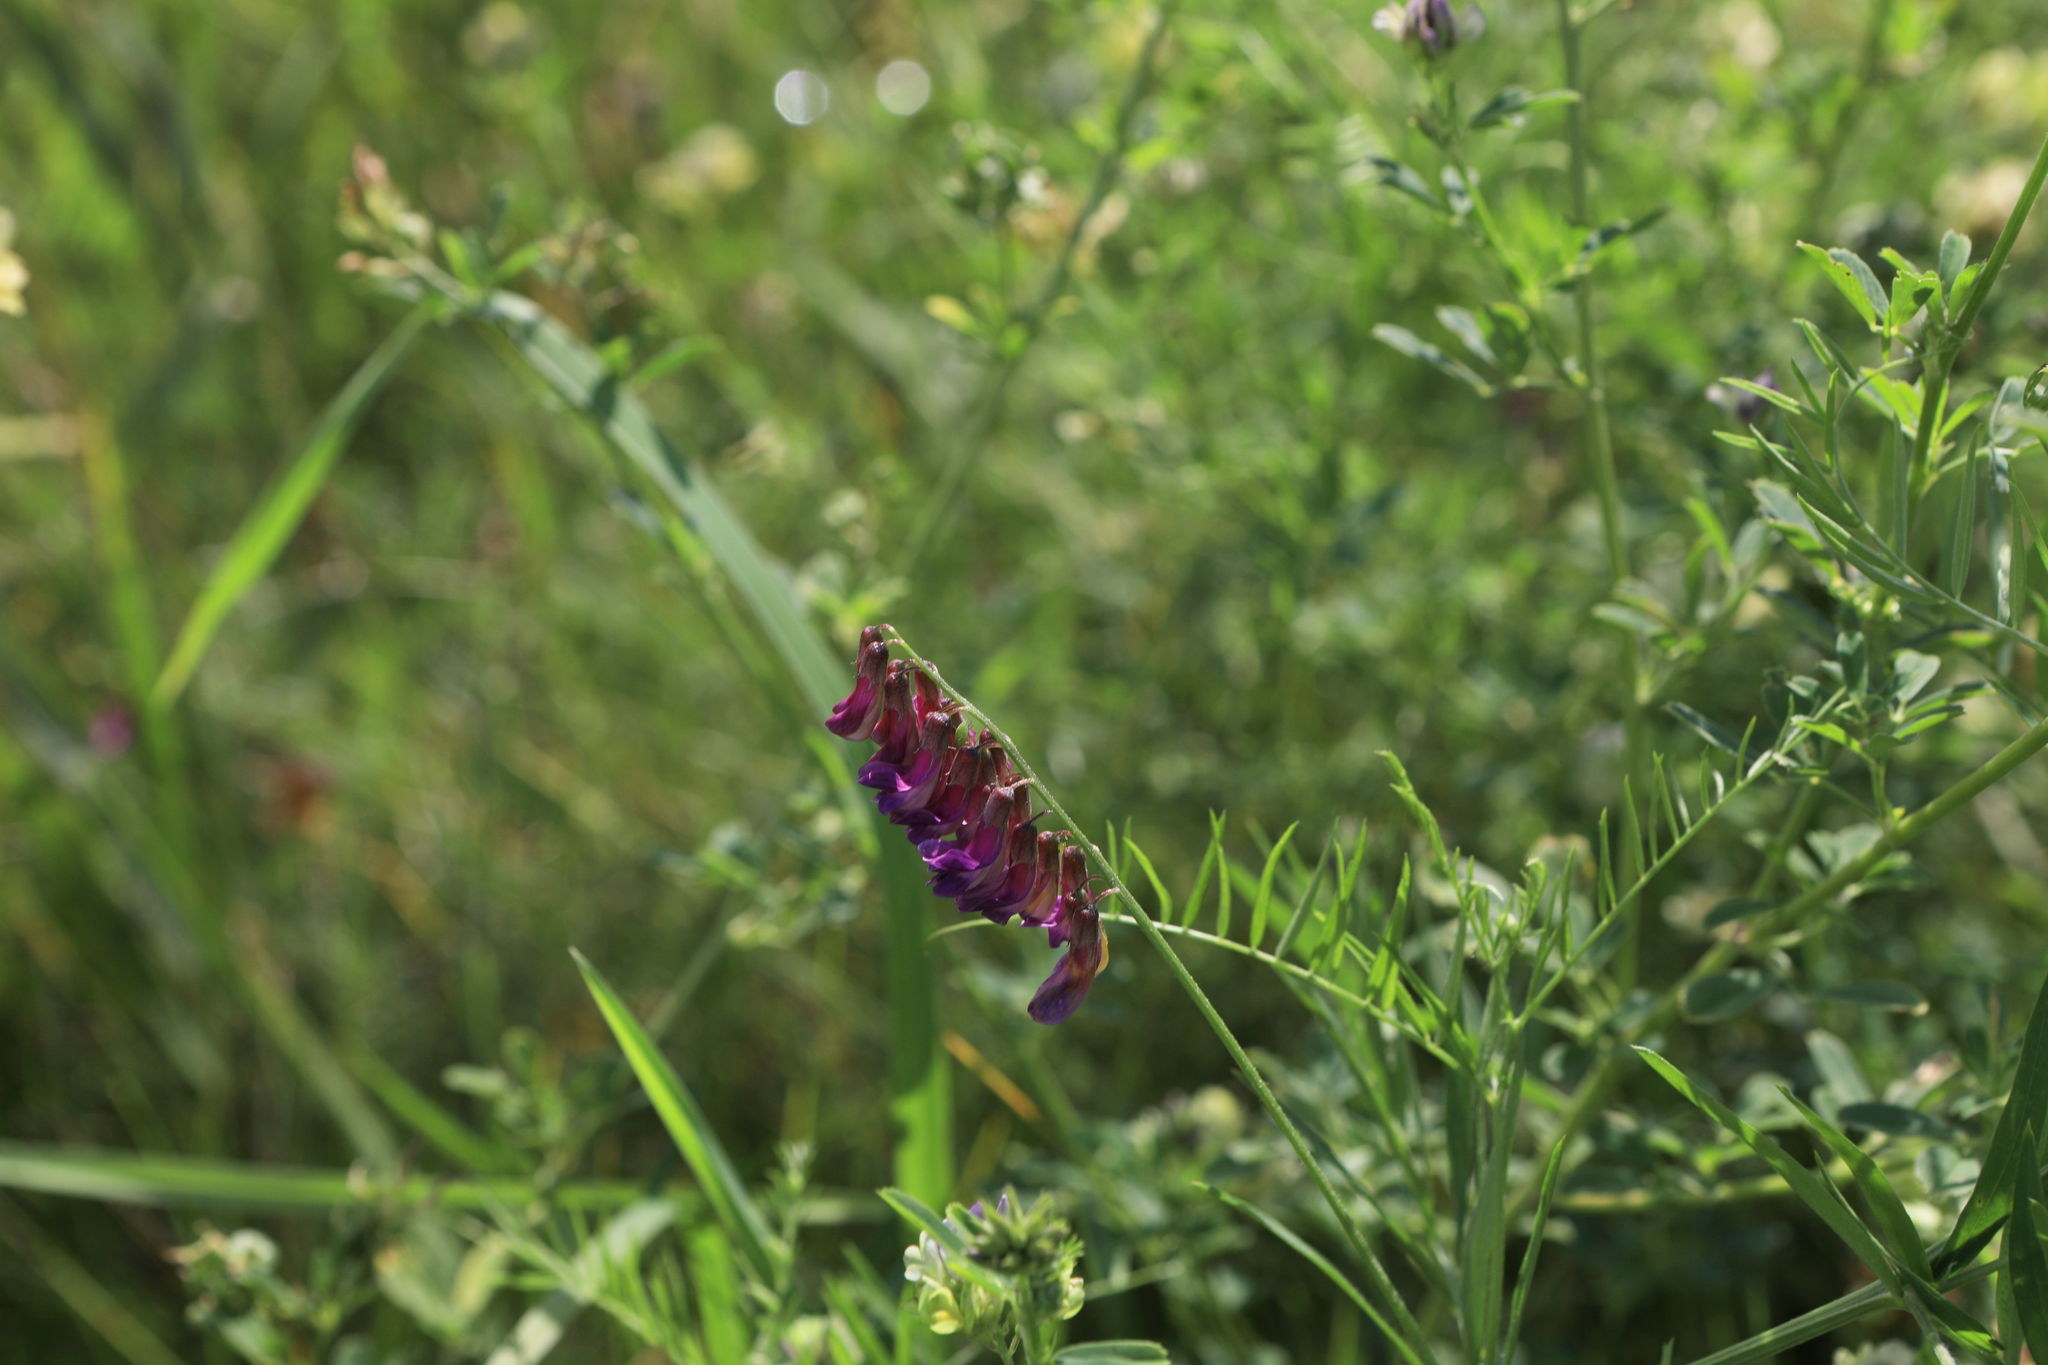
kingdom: Plantae
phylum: Tracheophyta
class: Magnoliopsida
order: Fabales
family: Fabaceae
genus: Vicia
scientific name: Vicia megalotropis
